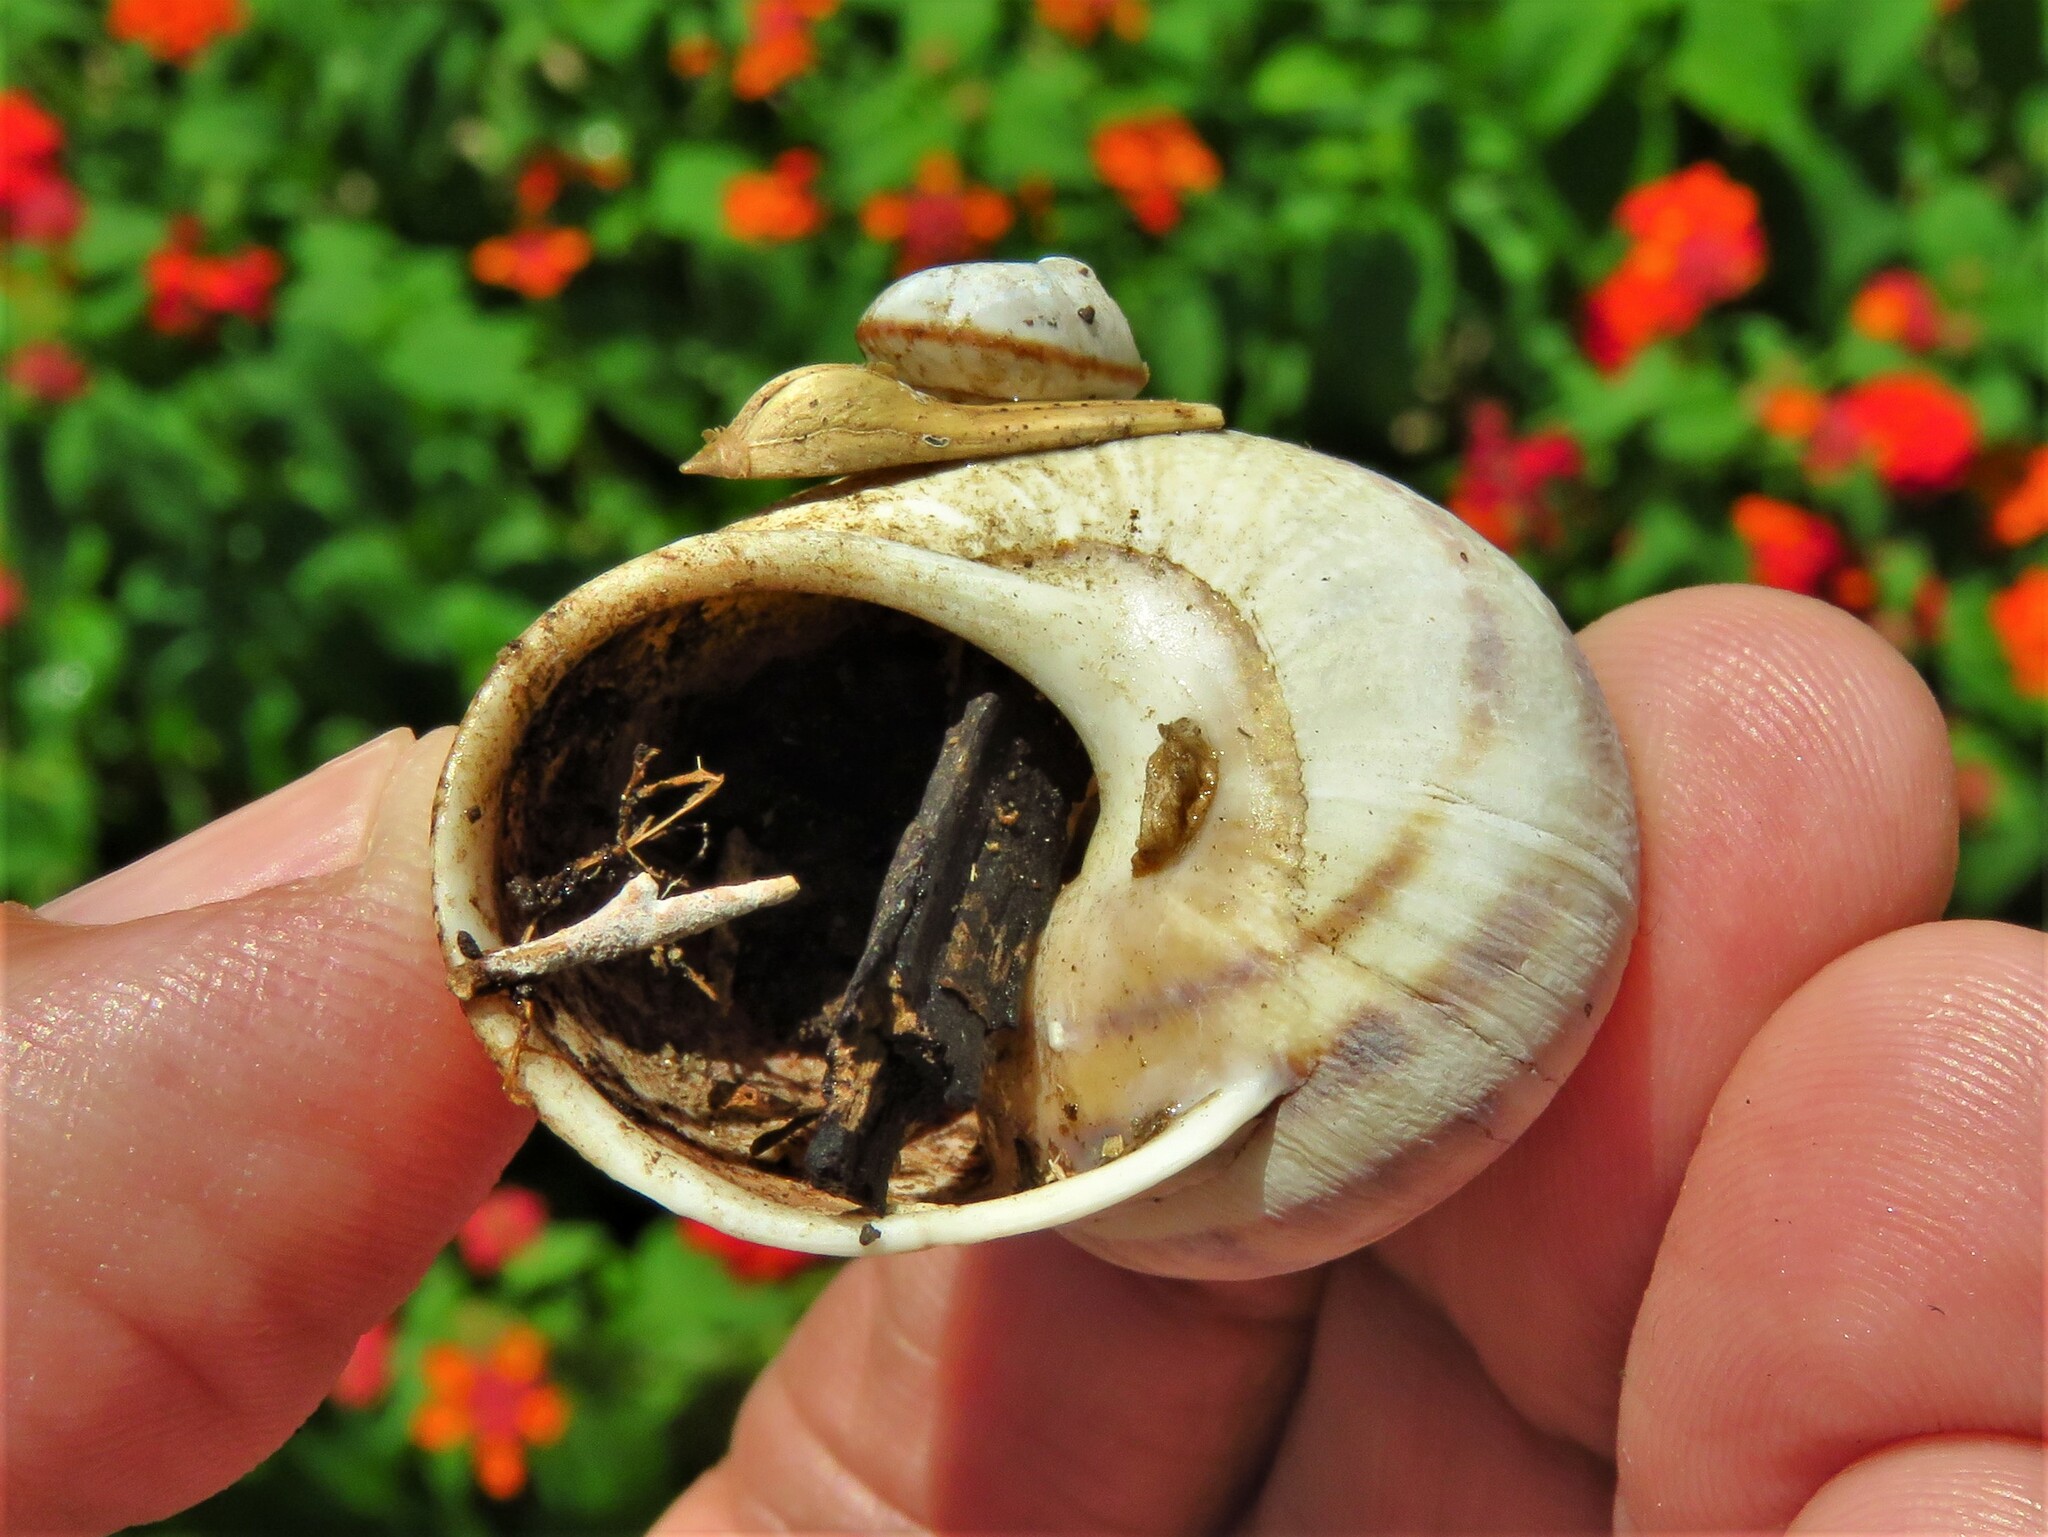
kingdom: Animalia
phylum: Mollusca
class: Gastropoda
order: Stylommatophora
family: Helicidae
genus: Cornu
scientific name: Cornu aspersum
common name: Brown garden snail
